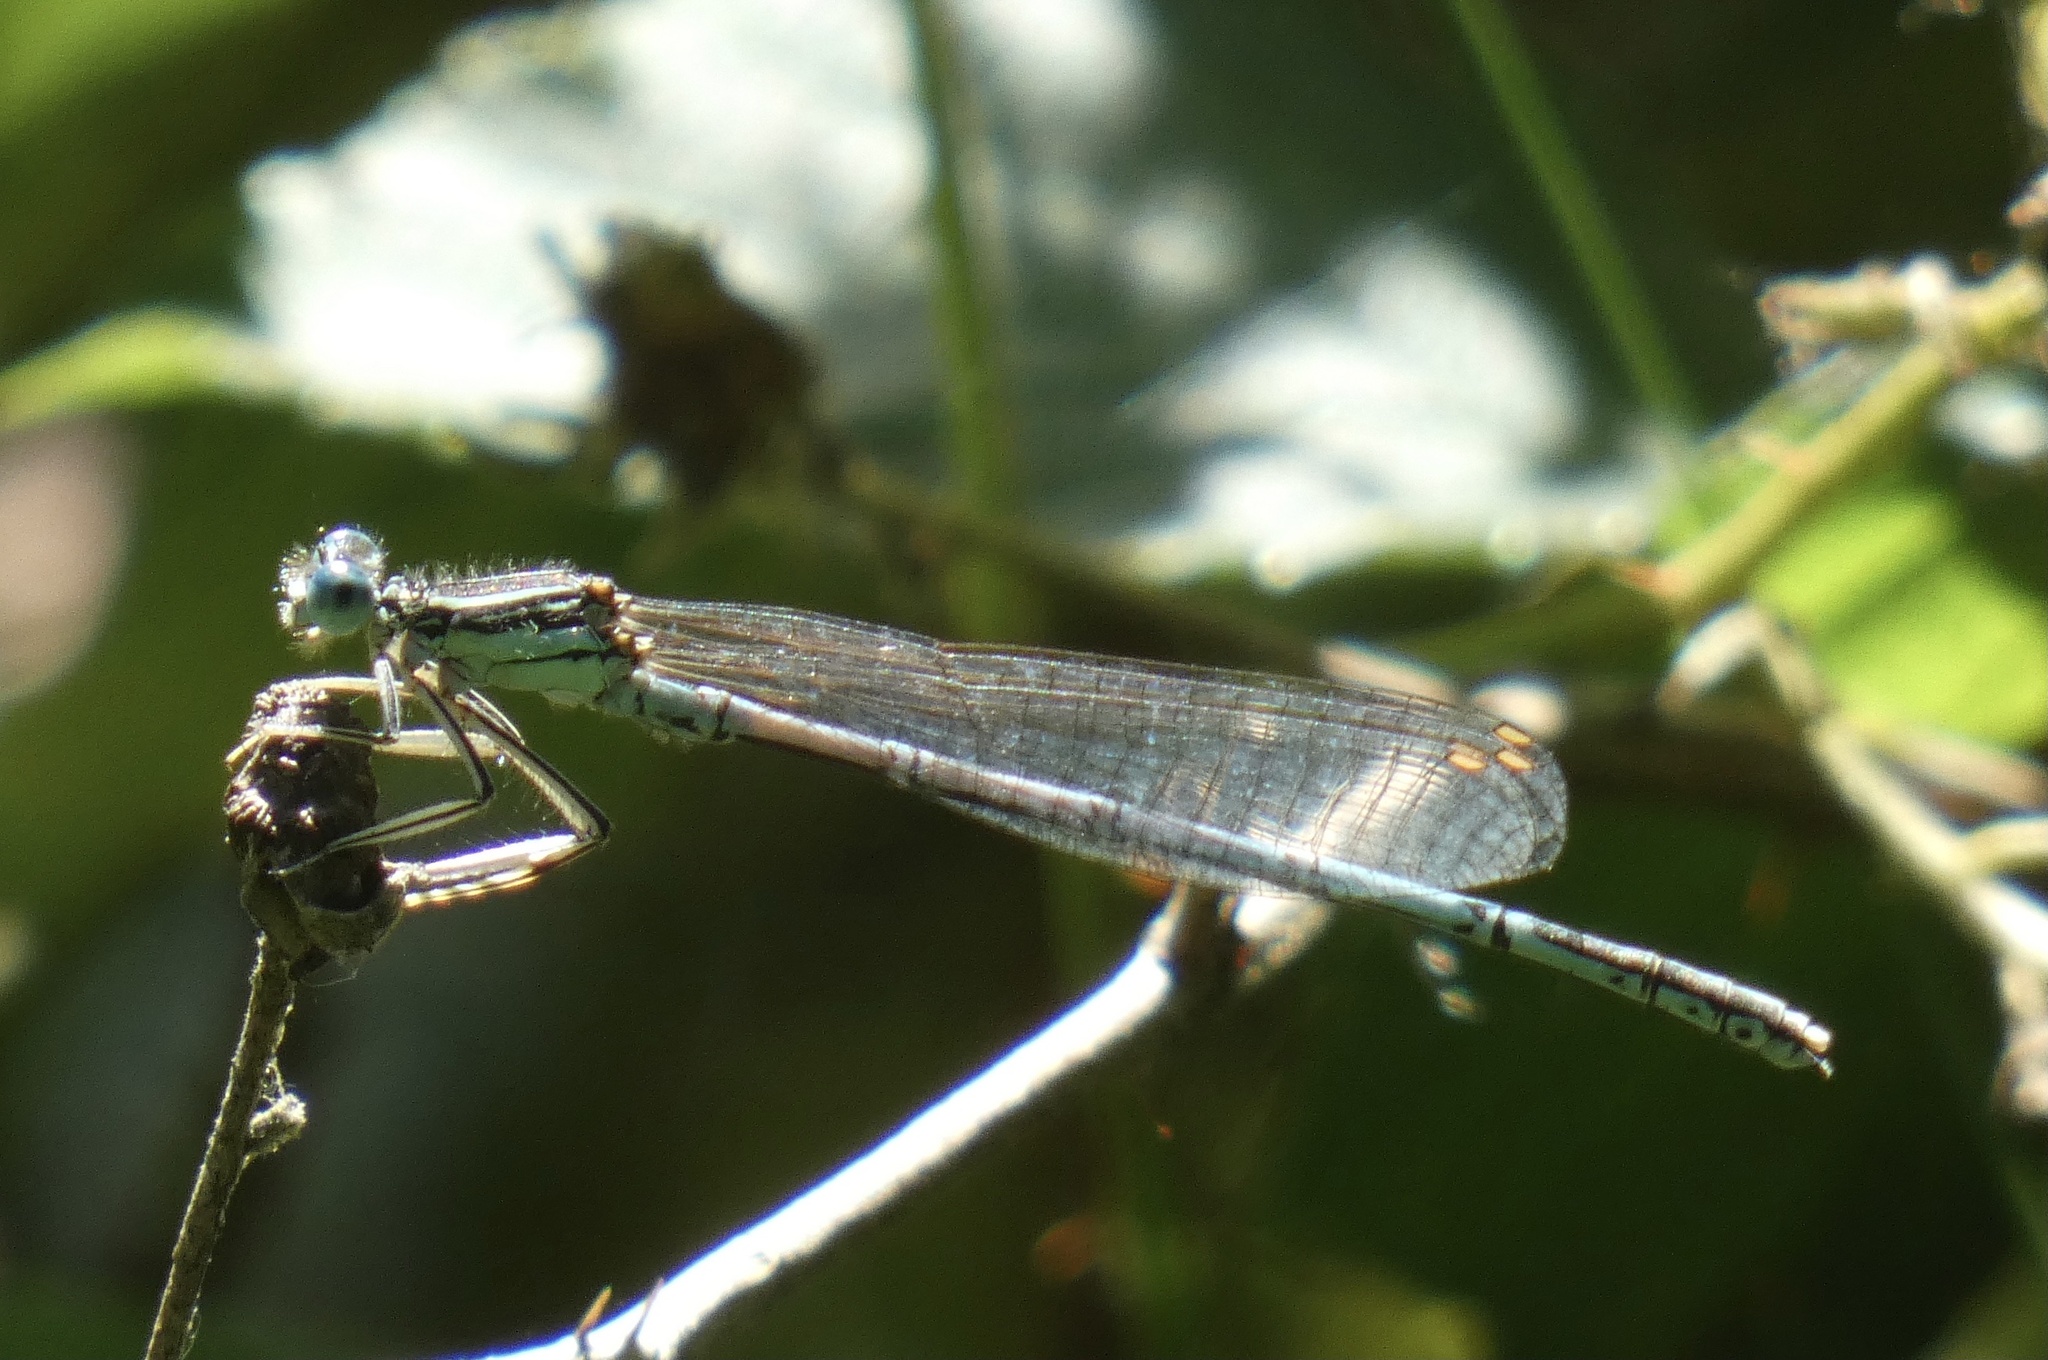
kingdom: Animalia
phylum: Arthropoda
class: Insecta
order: Odonata
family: Platycnemididae
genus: Platycnemis
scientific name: Platycnemis pennipes
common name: White-legged damselfly
